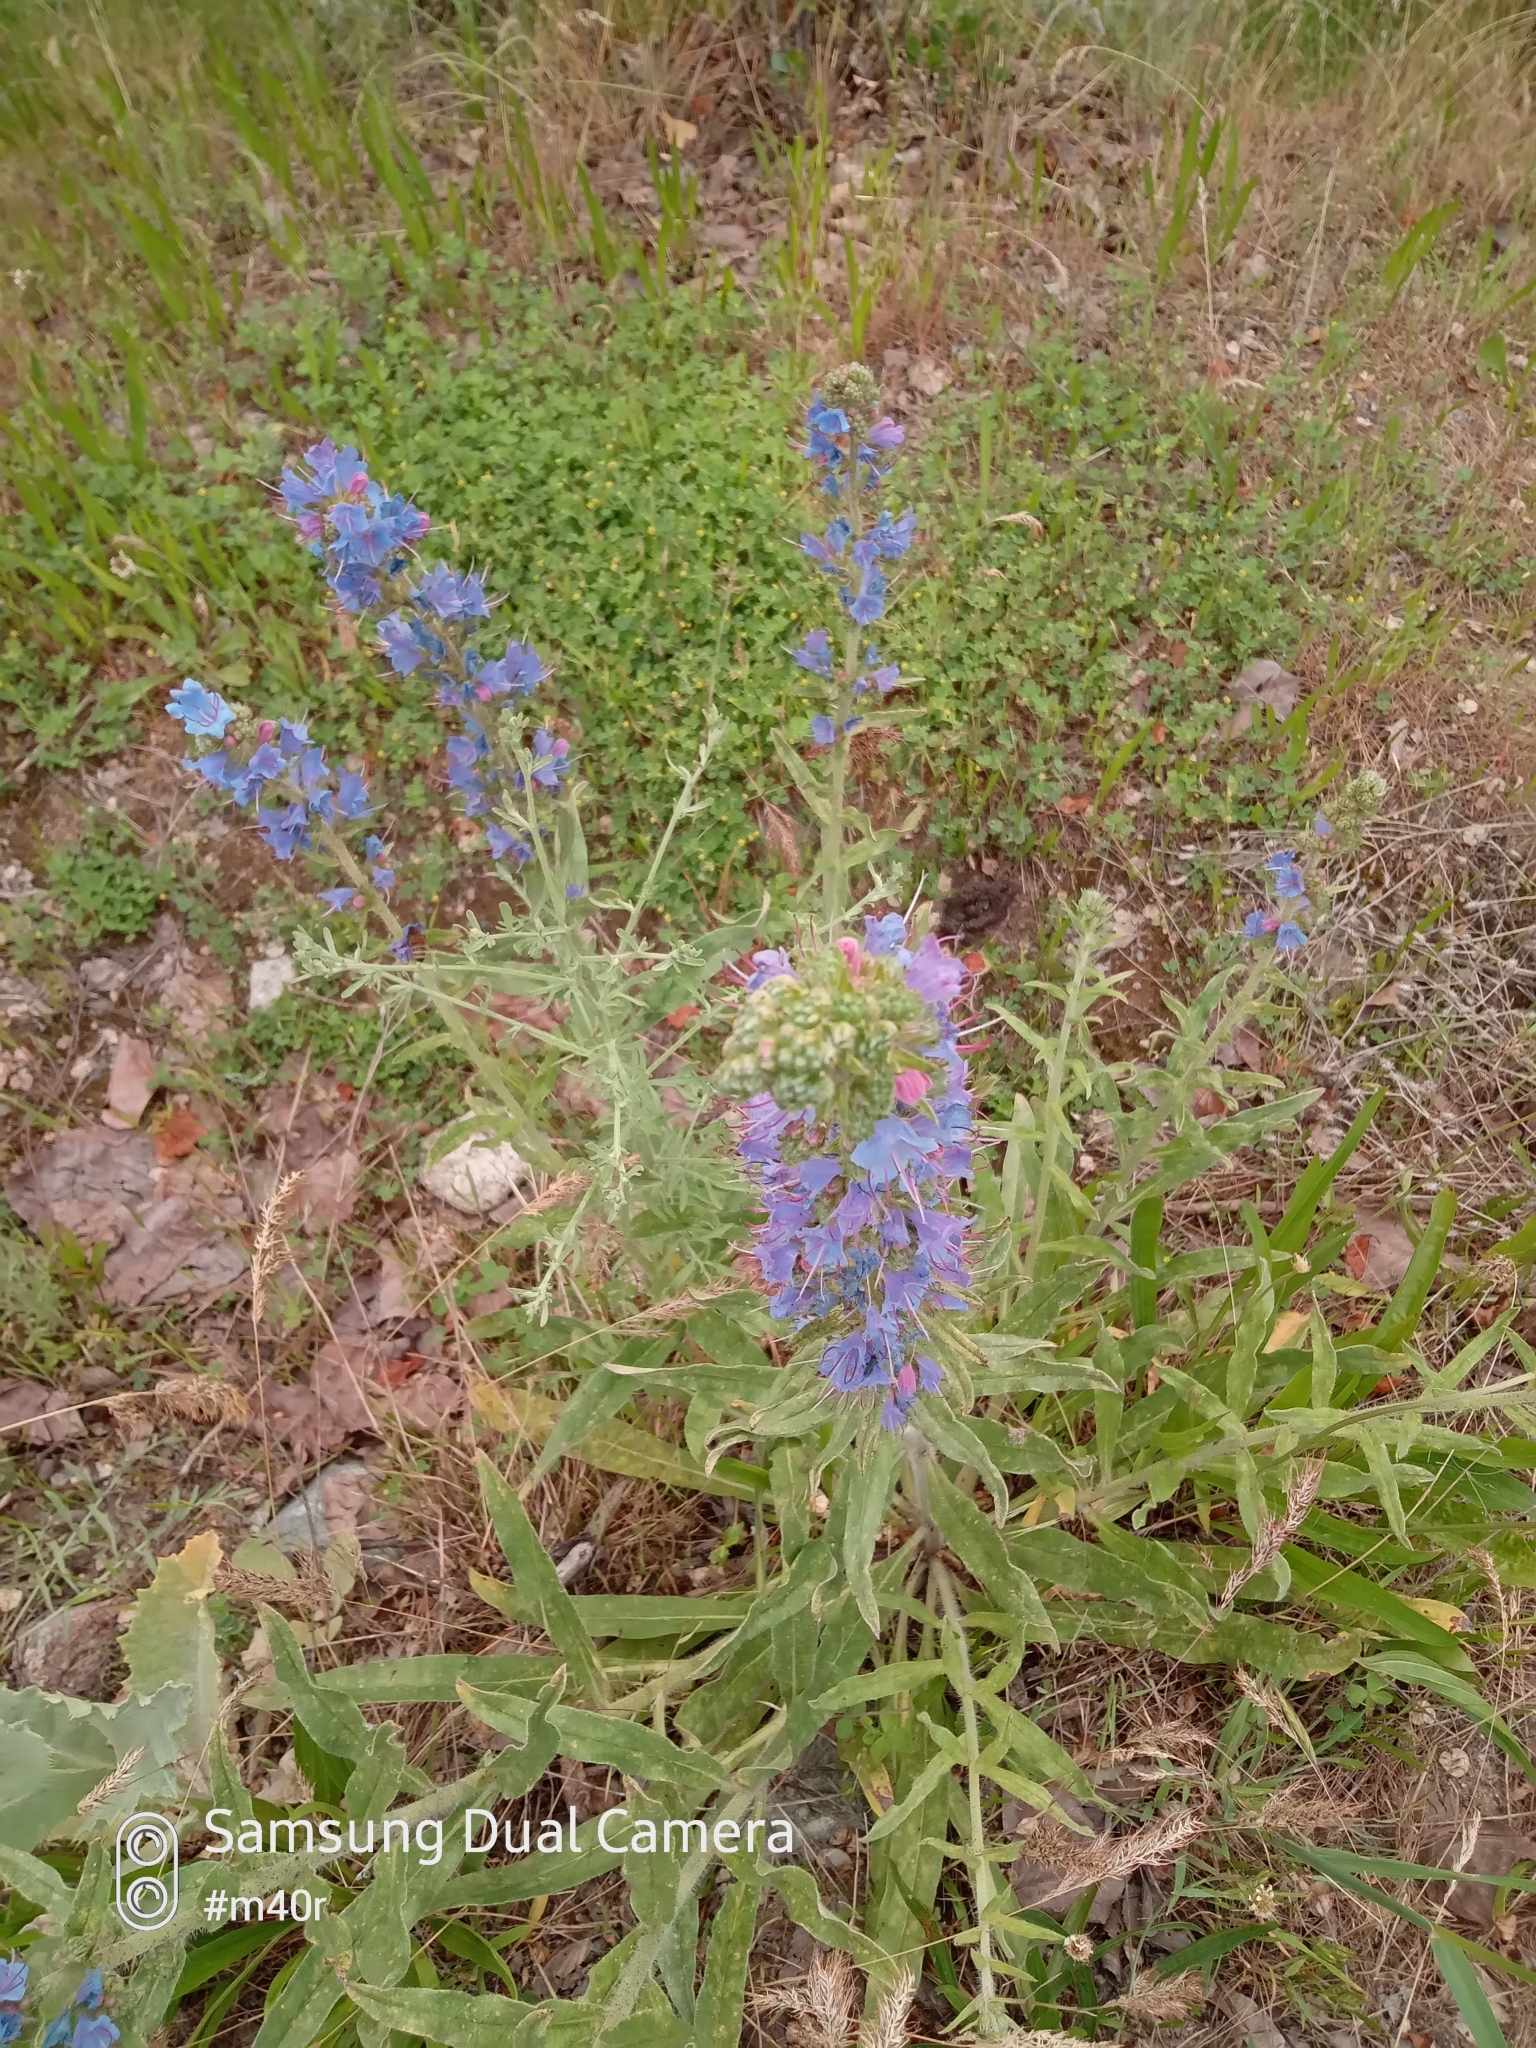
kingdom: Plantae
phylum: Tracheophyta
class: Magnoliopsida
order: Boraginales
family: Boraginaceae
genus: Echium
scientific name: Echium vulgare
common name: Common viper's bugloss
